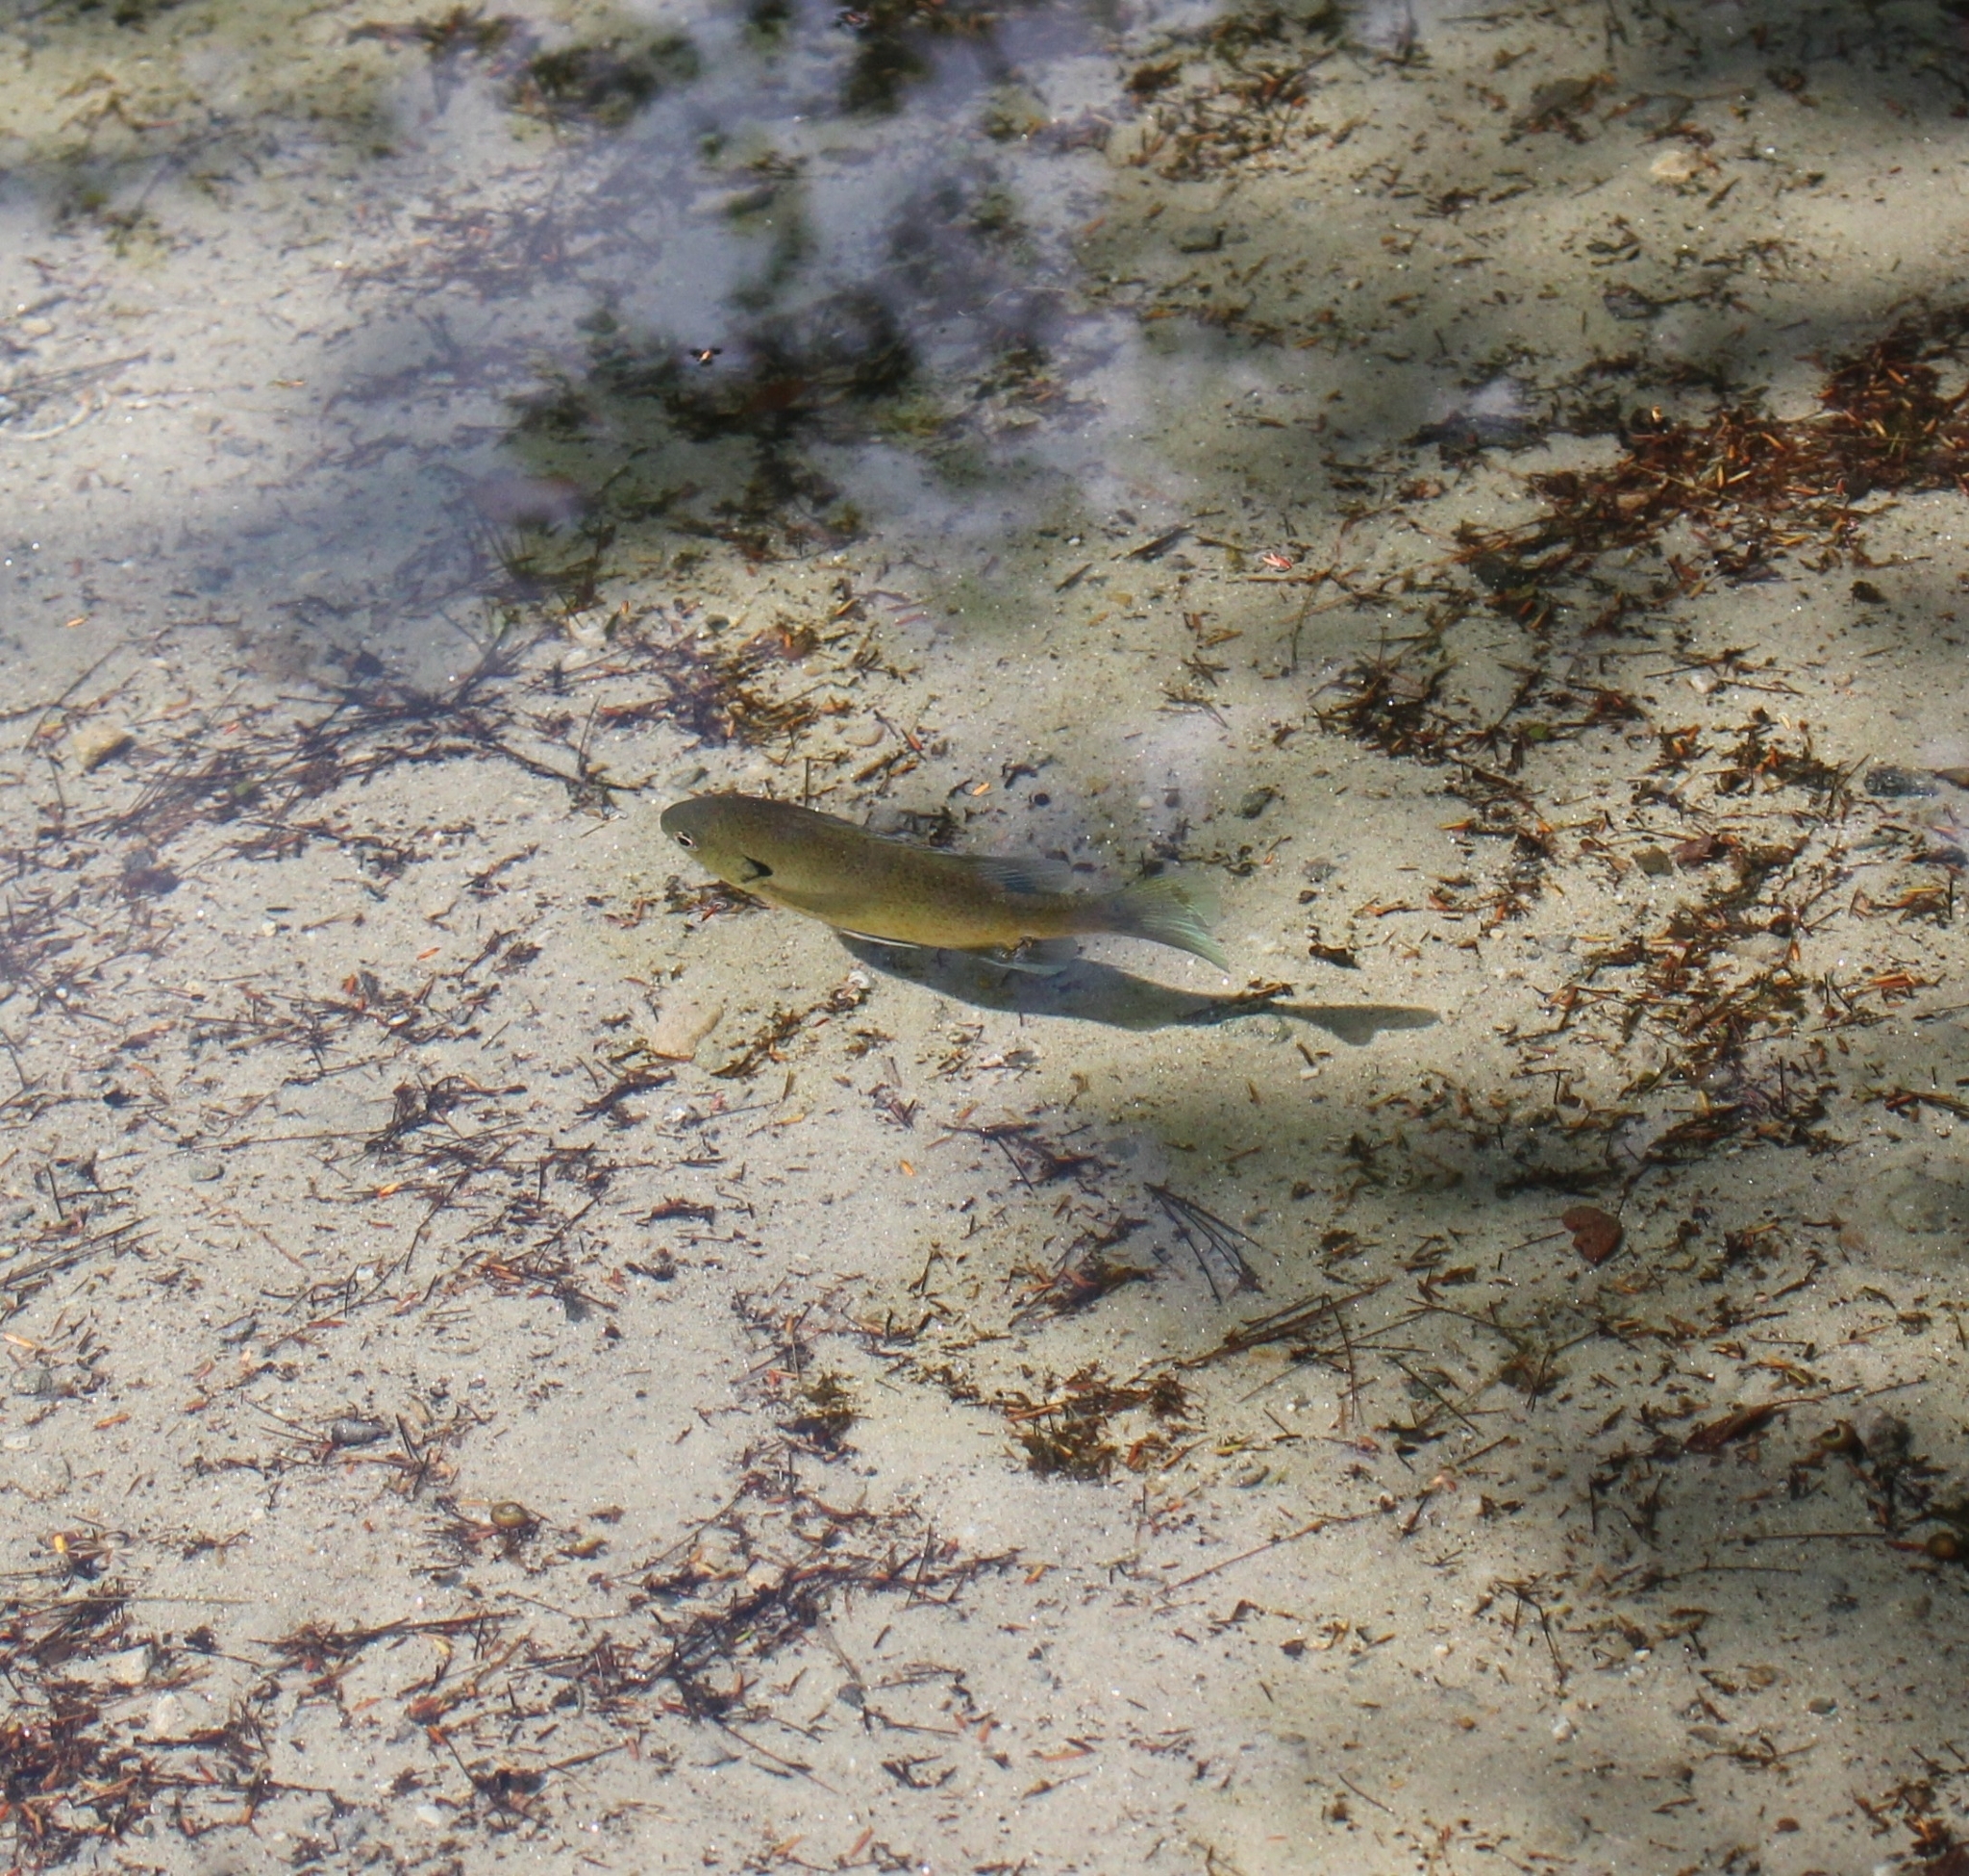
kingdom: Animalia
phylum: Chordata
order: Perciformes
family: Centrarchidae
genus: Lepomis
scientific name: Lepomis macrochirus
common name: Bluegill
